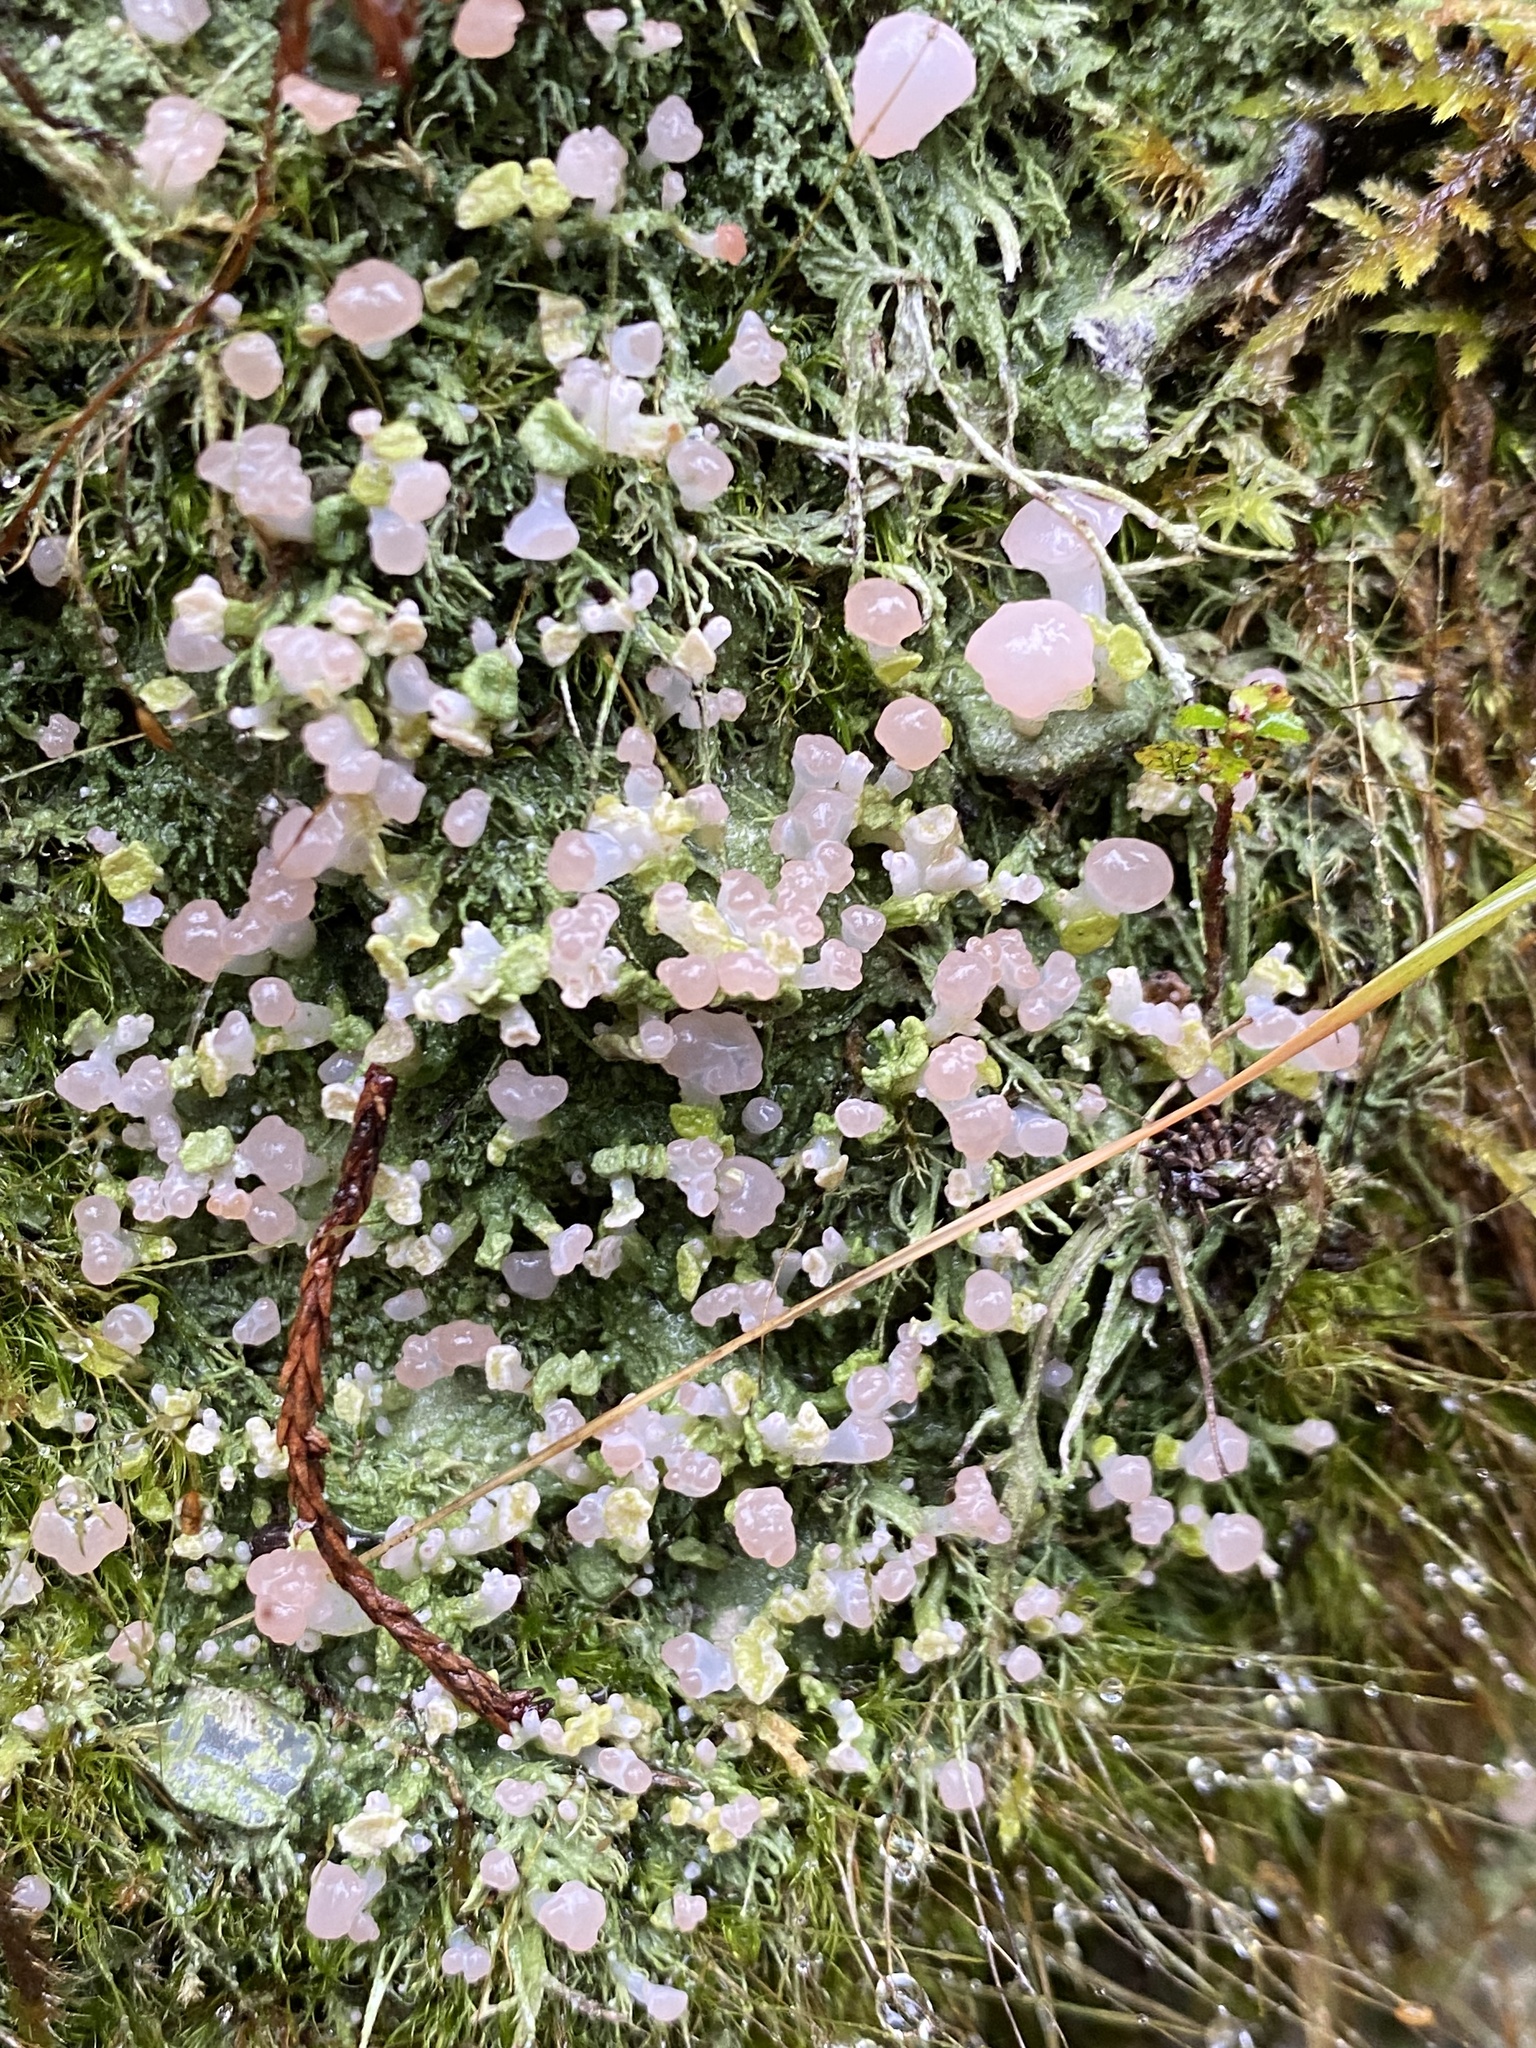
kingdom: Fungi
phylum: Ascomycota
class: Lecanoromycetes
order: Baeomycetales
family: Baeomycetaceae
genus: Baeomyces
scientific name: Baeomyces heteromorphus
